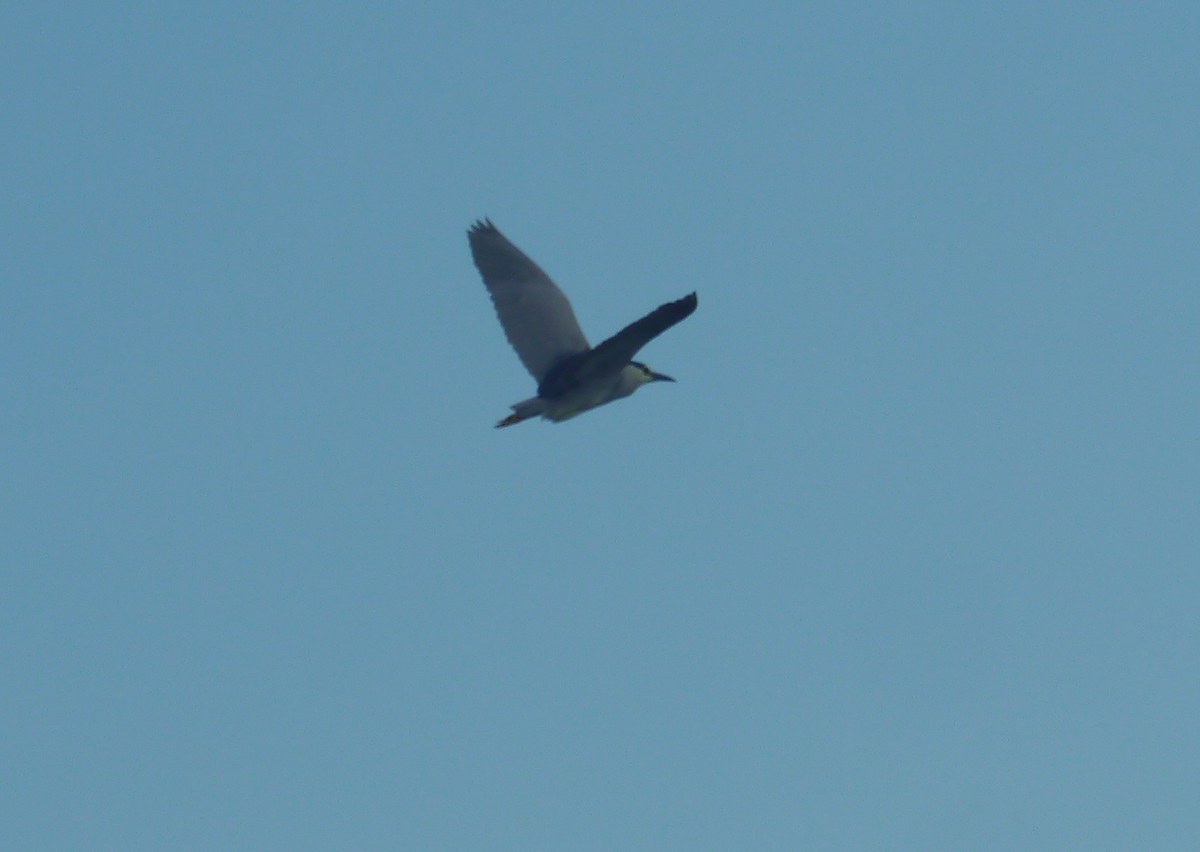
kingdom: Animalia
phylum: Chordata
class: Aves
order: Pelecaniformes
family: Ardeidae
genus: Nycticorax
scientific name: Nycticorax nycticorax
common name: Black-crowned night heron
